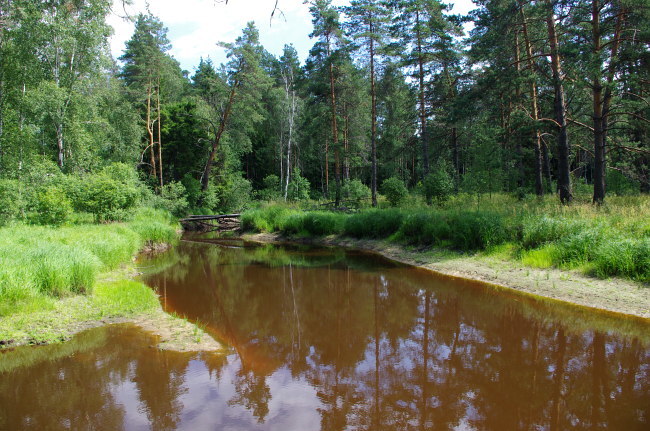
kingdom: Plantae
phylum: Tracheophyta
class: Pinopsida
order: Pinales
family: Pinaceae
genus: Pinus
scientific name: Pinus sylvestris
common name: Scots pine
